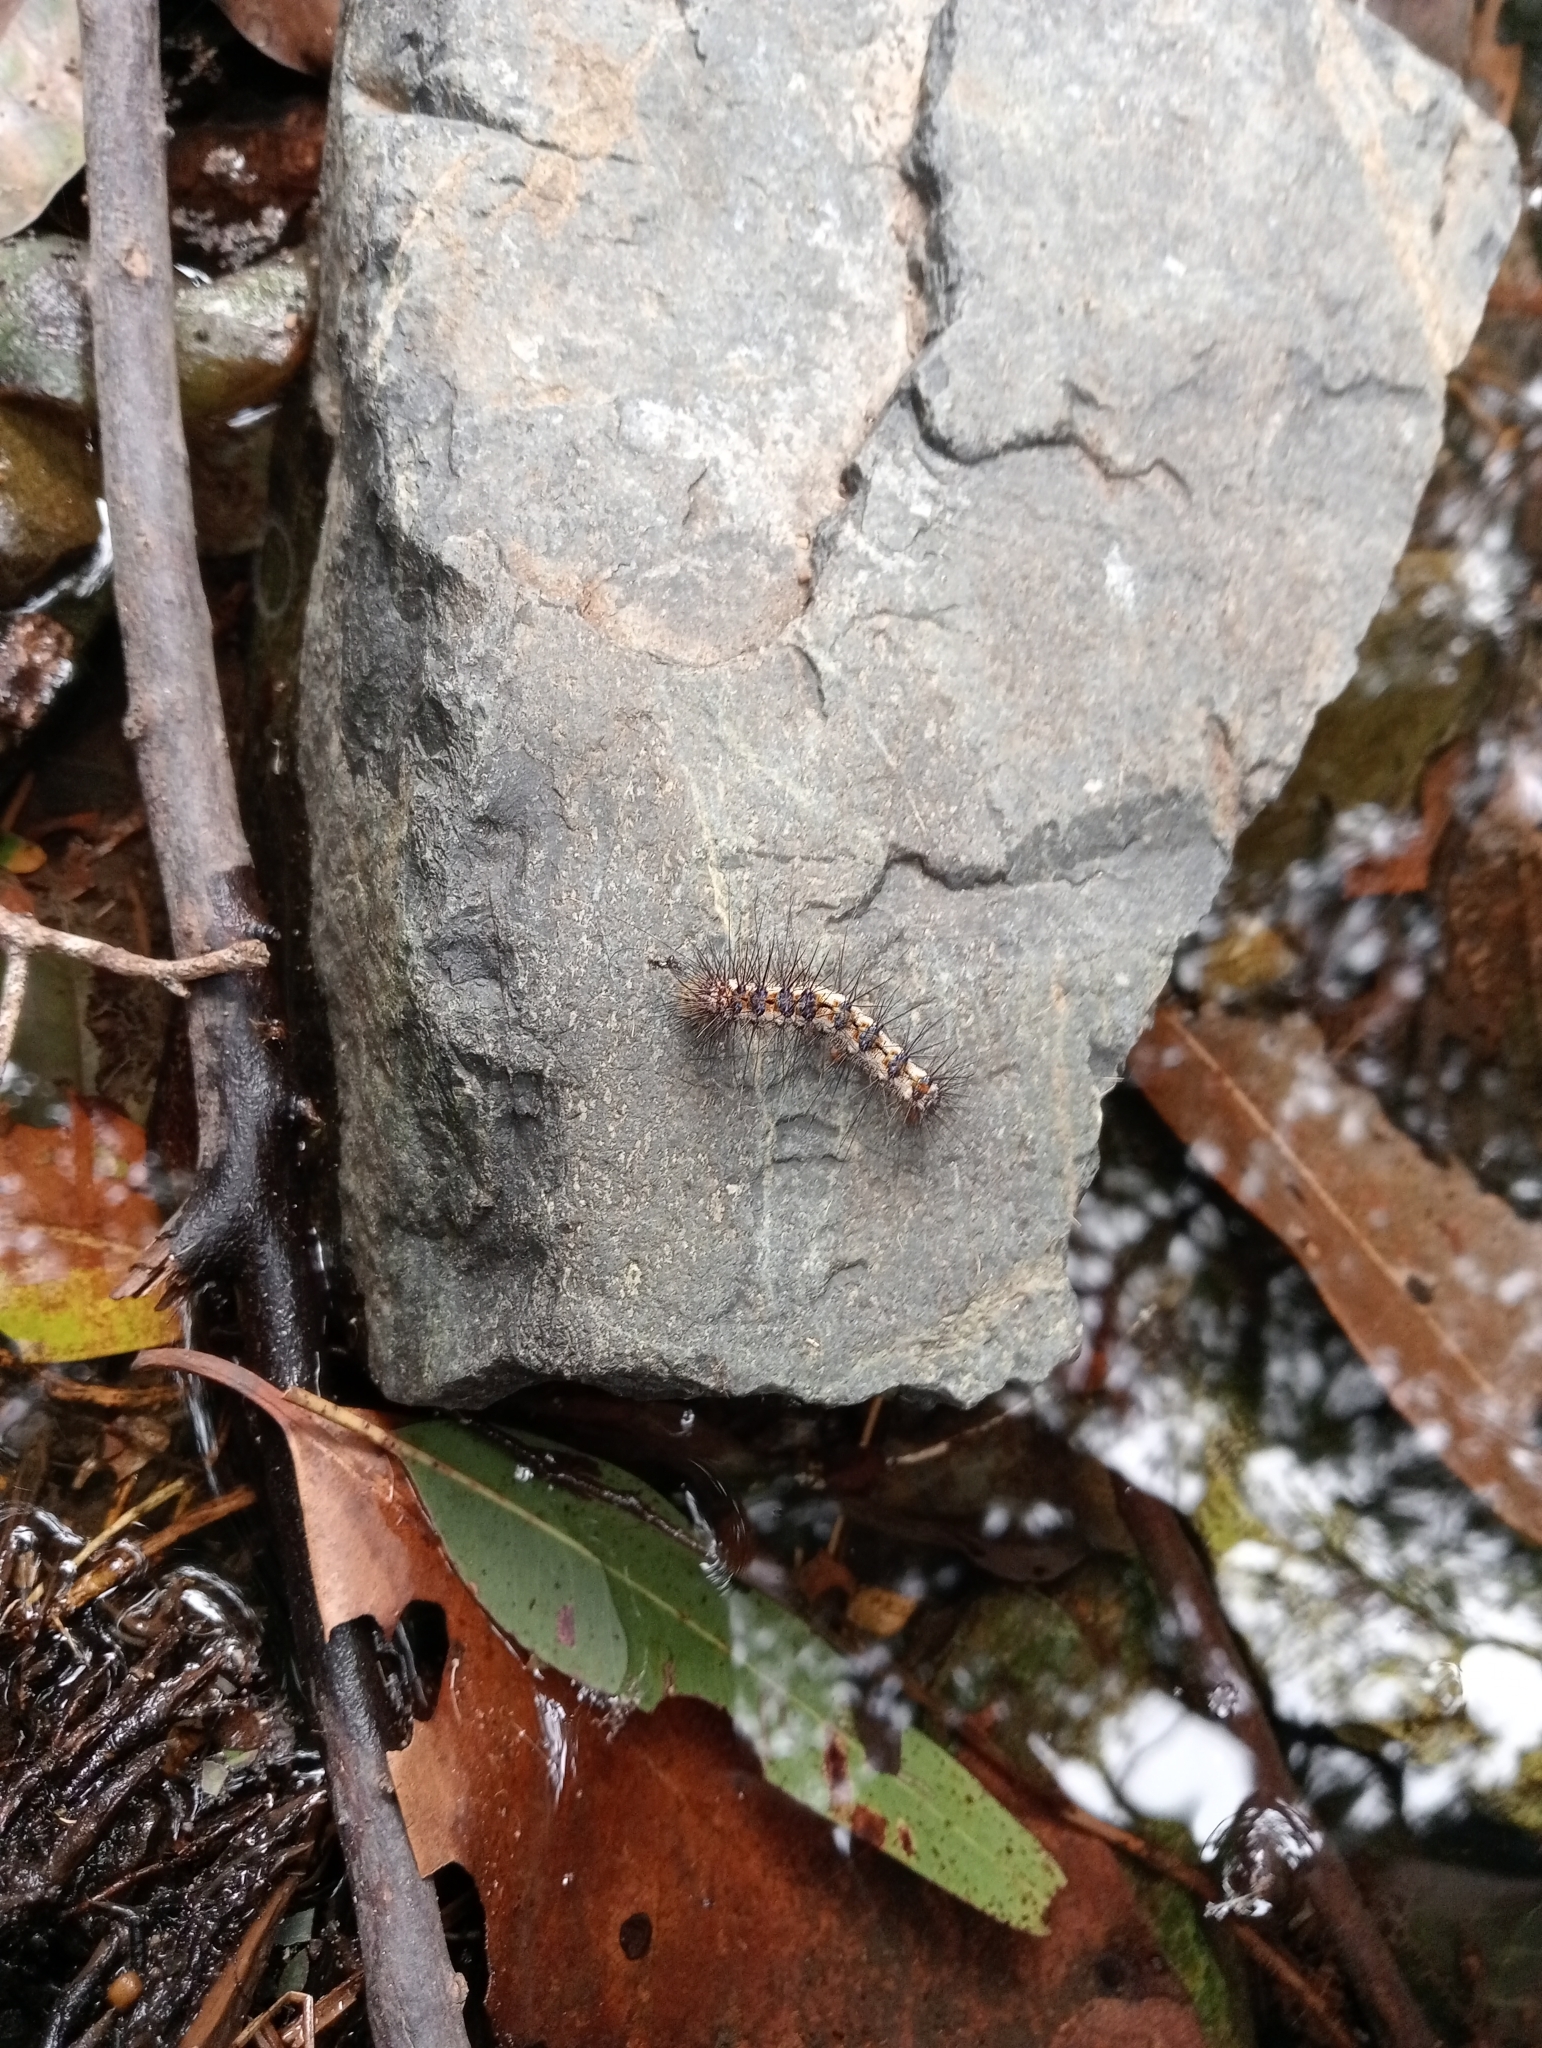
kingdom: Animalia
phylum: Arthropoda
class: Insecta
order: Lepidoptera
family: Notodontidae
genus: Aglaosoma
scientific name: Aglaosoma variegata
